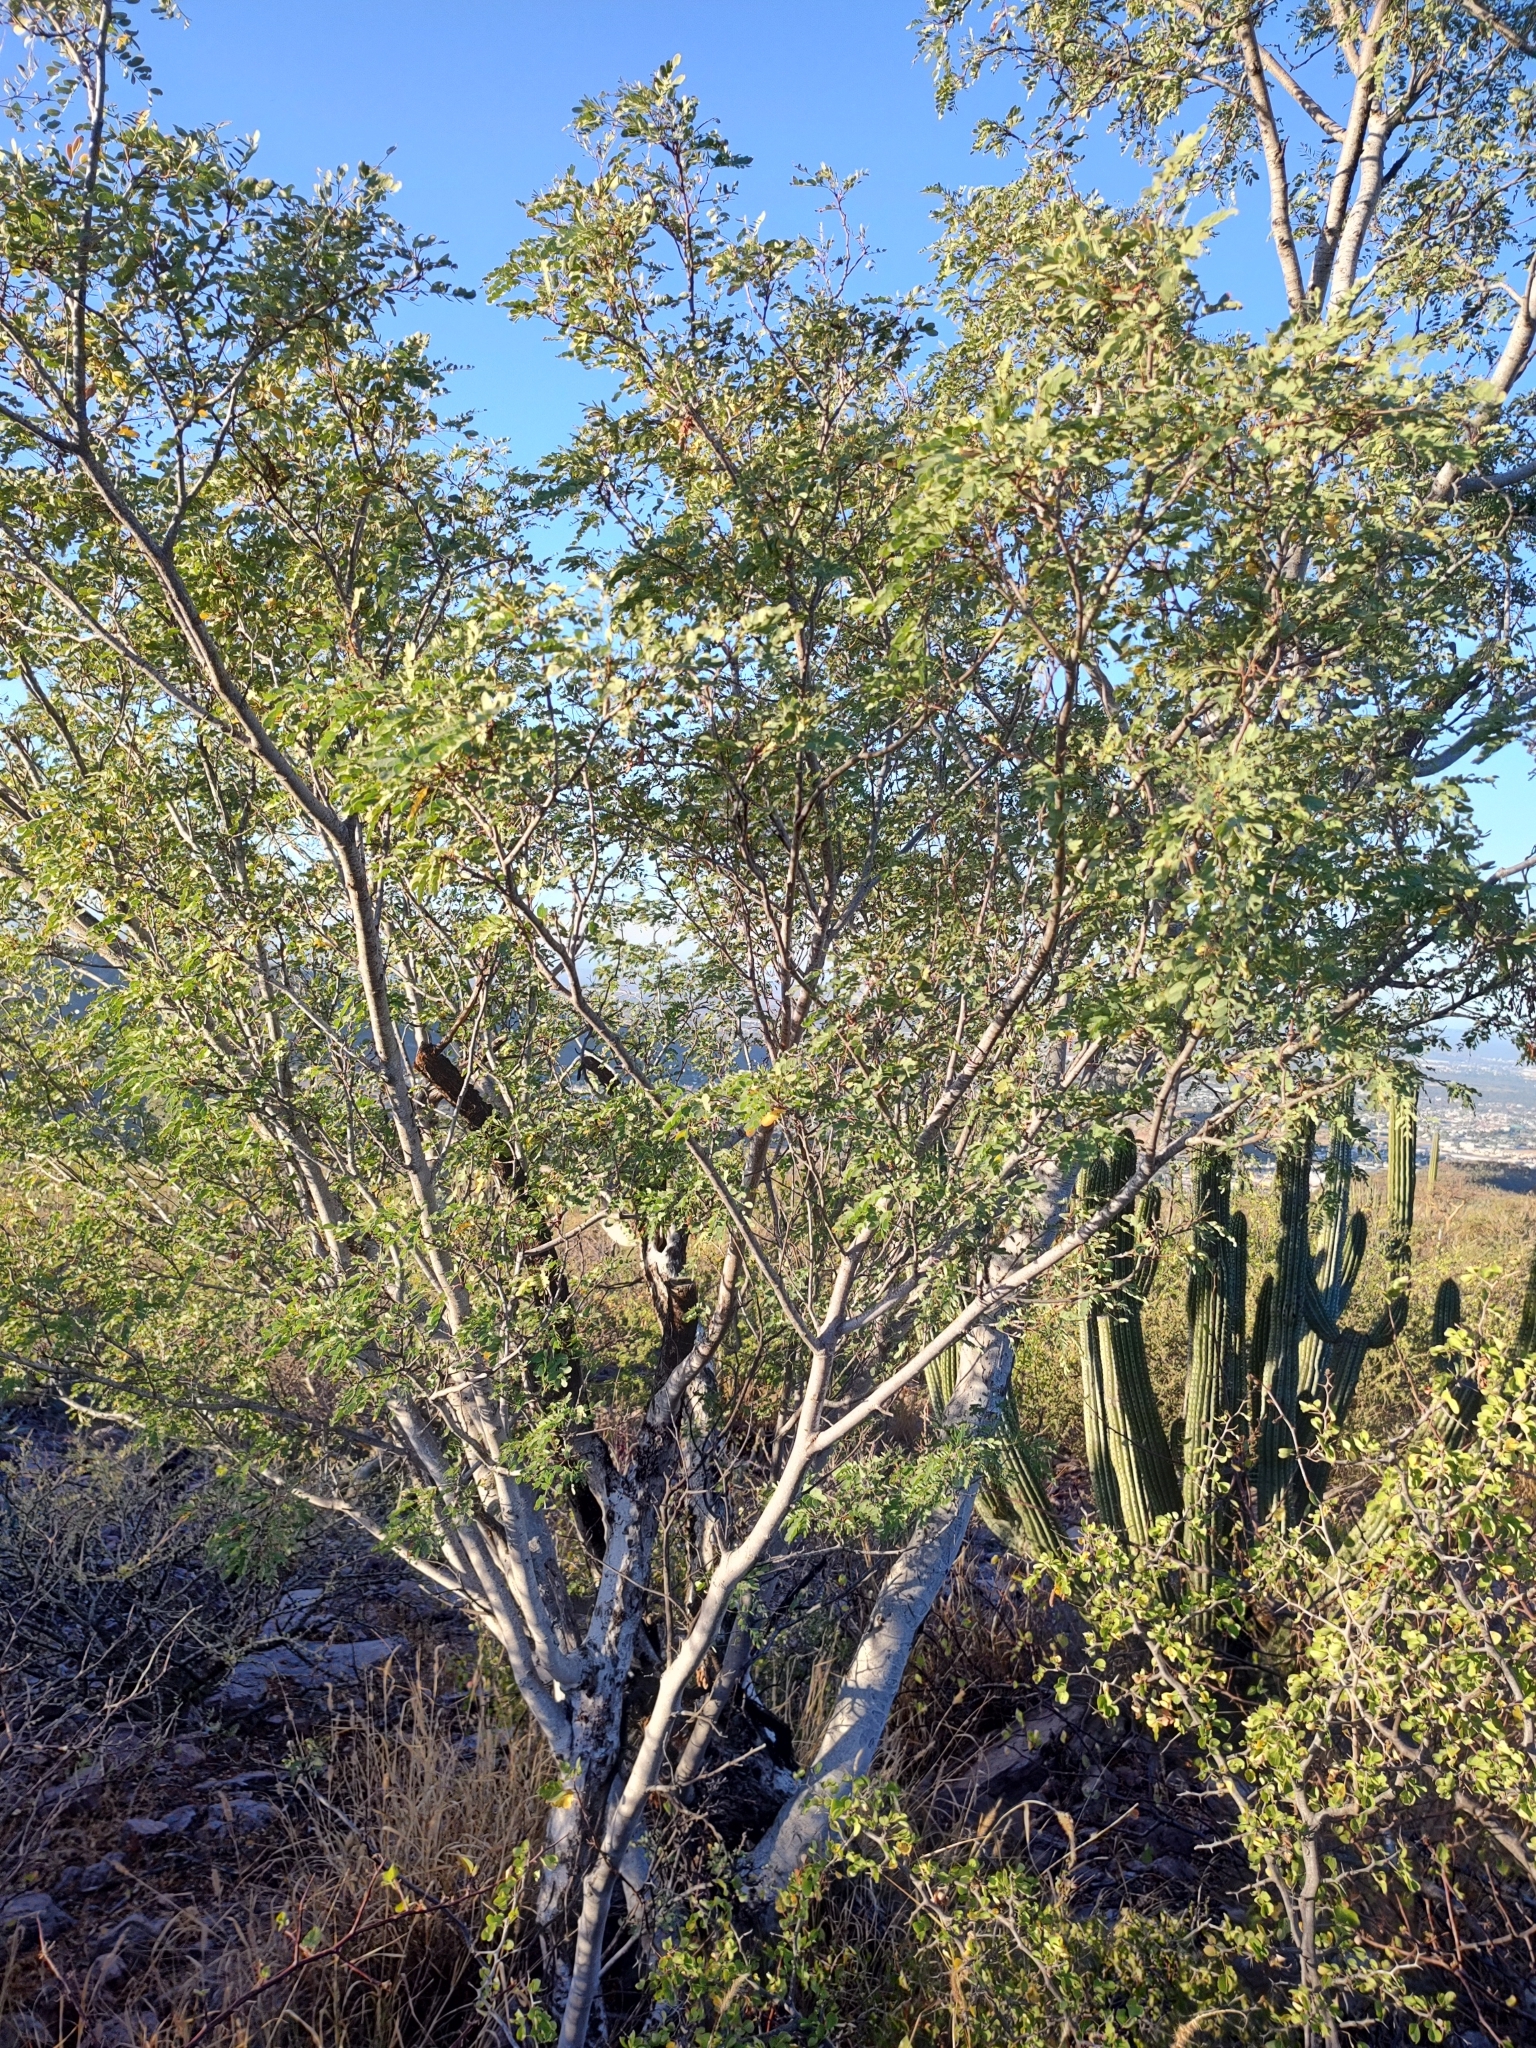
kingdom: Plantae
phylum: Tracheophyta
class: Magnoliopsida
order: Fabales
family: Fabaceae
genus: Lysiloma
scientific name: Lysiloma candidum
